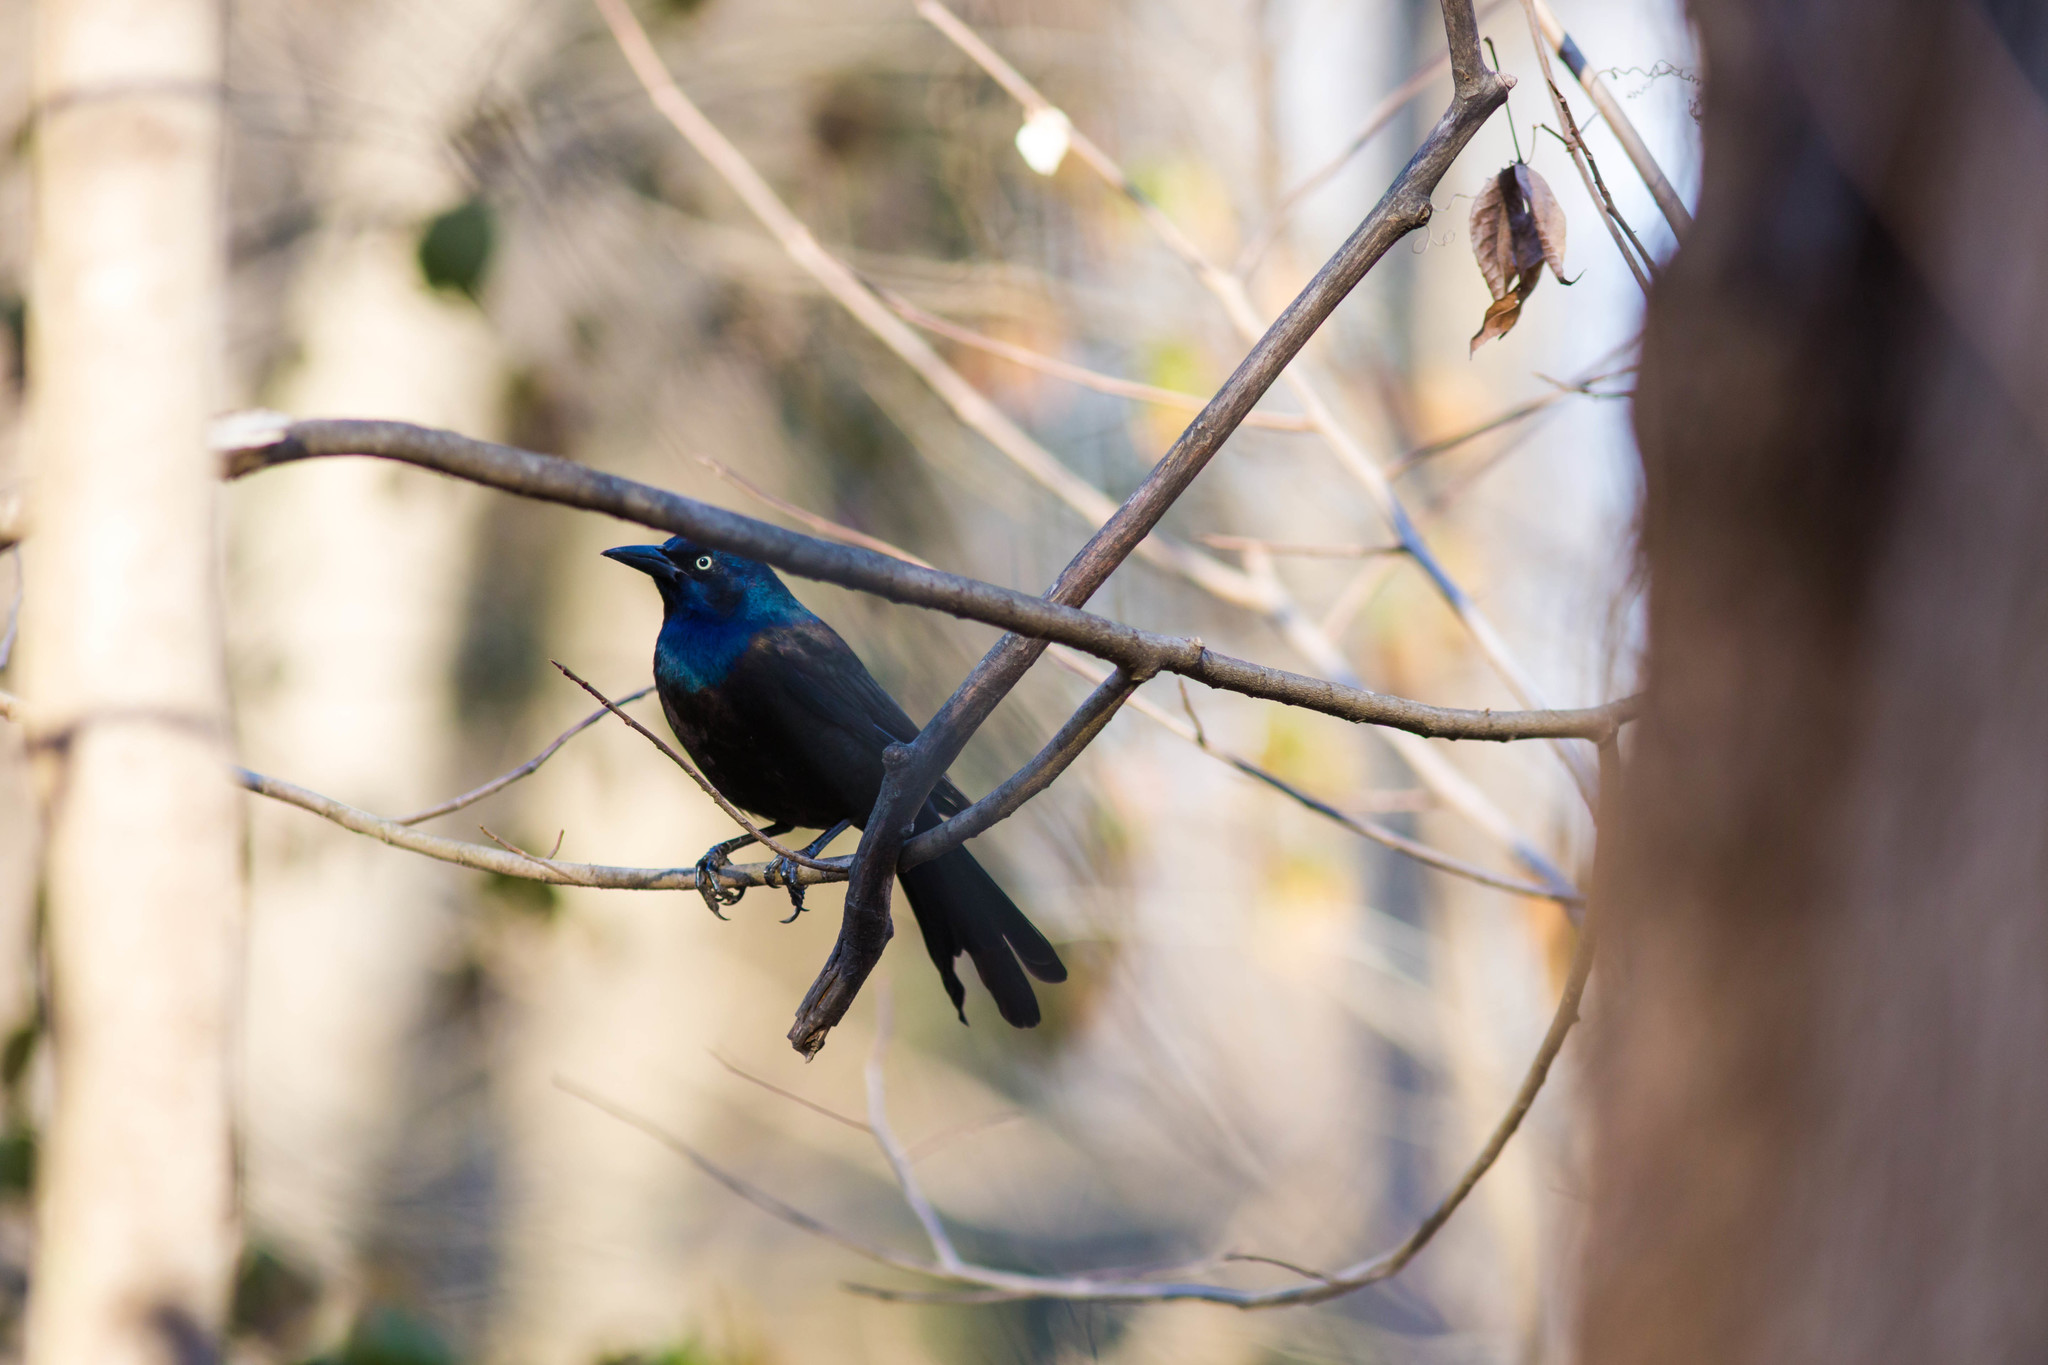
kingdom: Animalia
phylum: Chordata
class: Aves
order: Passeriformes
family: Icteridae
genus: Quiscalus
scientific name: Quiscalus quiscula
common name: Common grackle
